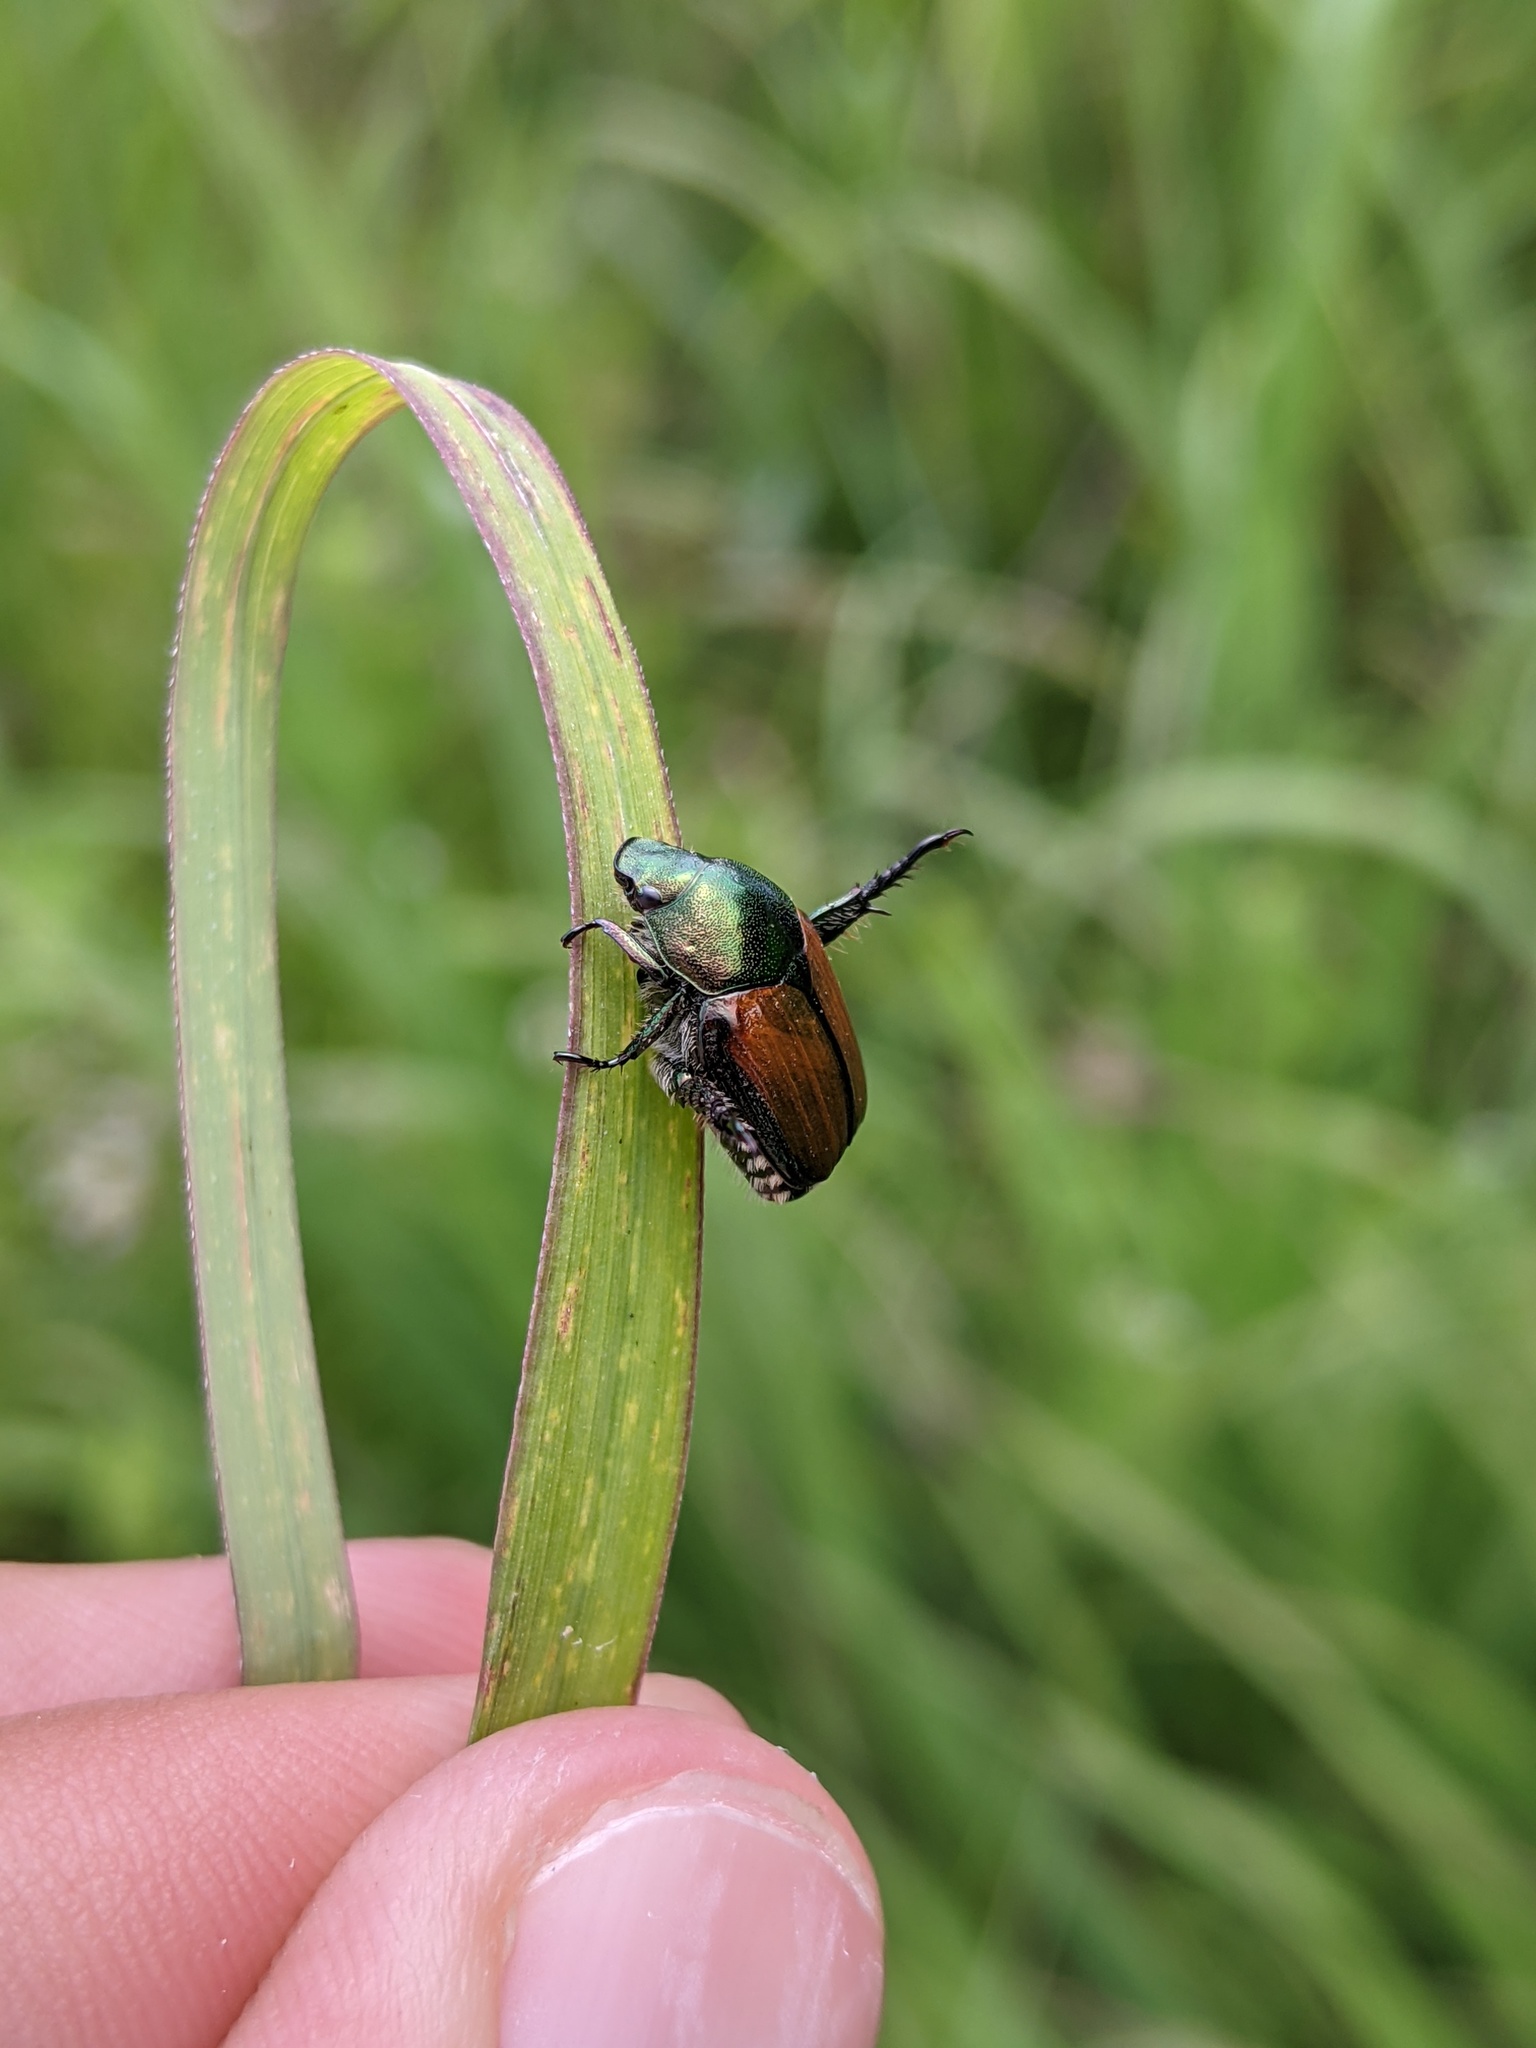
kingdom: Animalia
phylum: Arthropoda
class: Insecta
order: Coleoptera
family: Scarabaeidae
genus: Popillia
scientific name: Popillia japonica
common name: Japanese beetle
